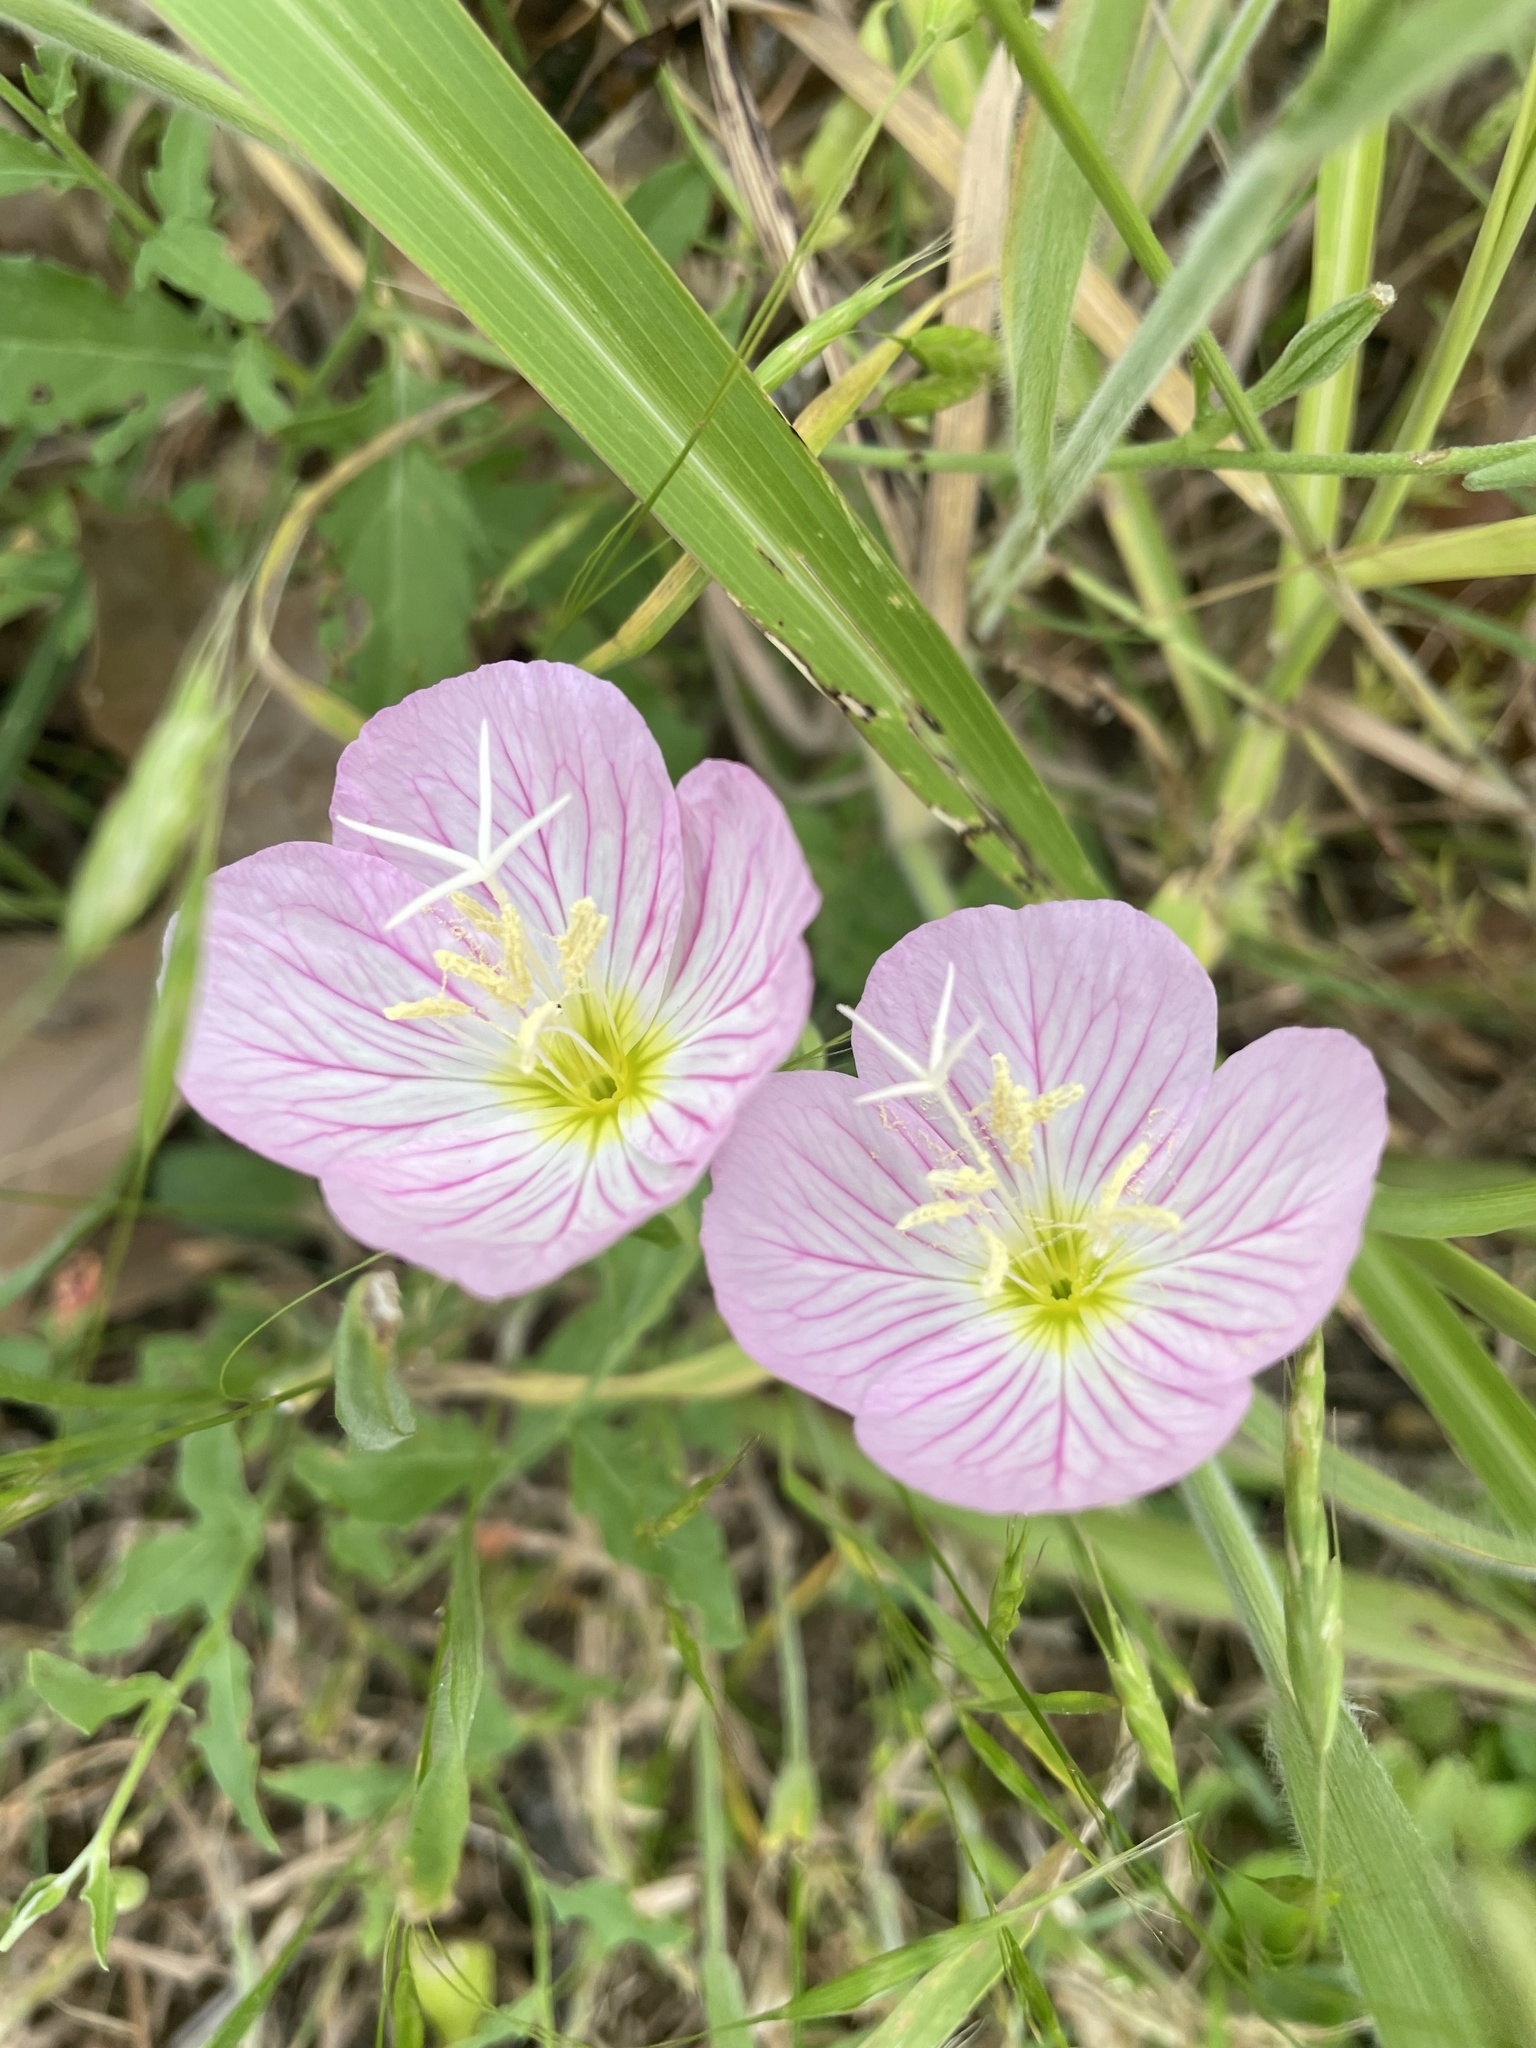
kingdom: Plantae
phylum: Tracheophyta
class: Magnoliopsida
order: Myrtales
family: Onagraceae
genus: Oenothera
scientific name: Oenothera speciosa
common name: White evening-primrose
